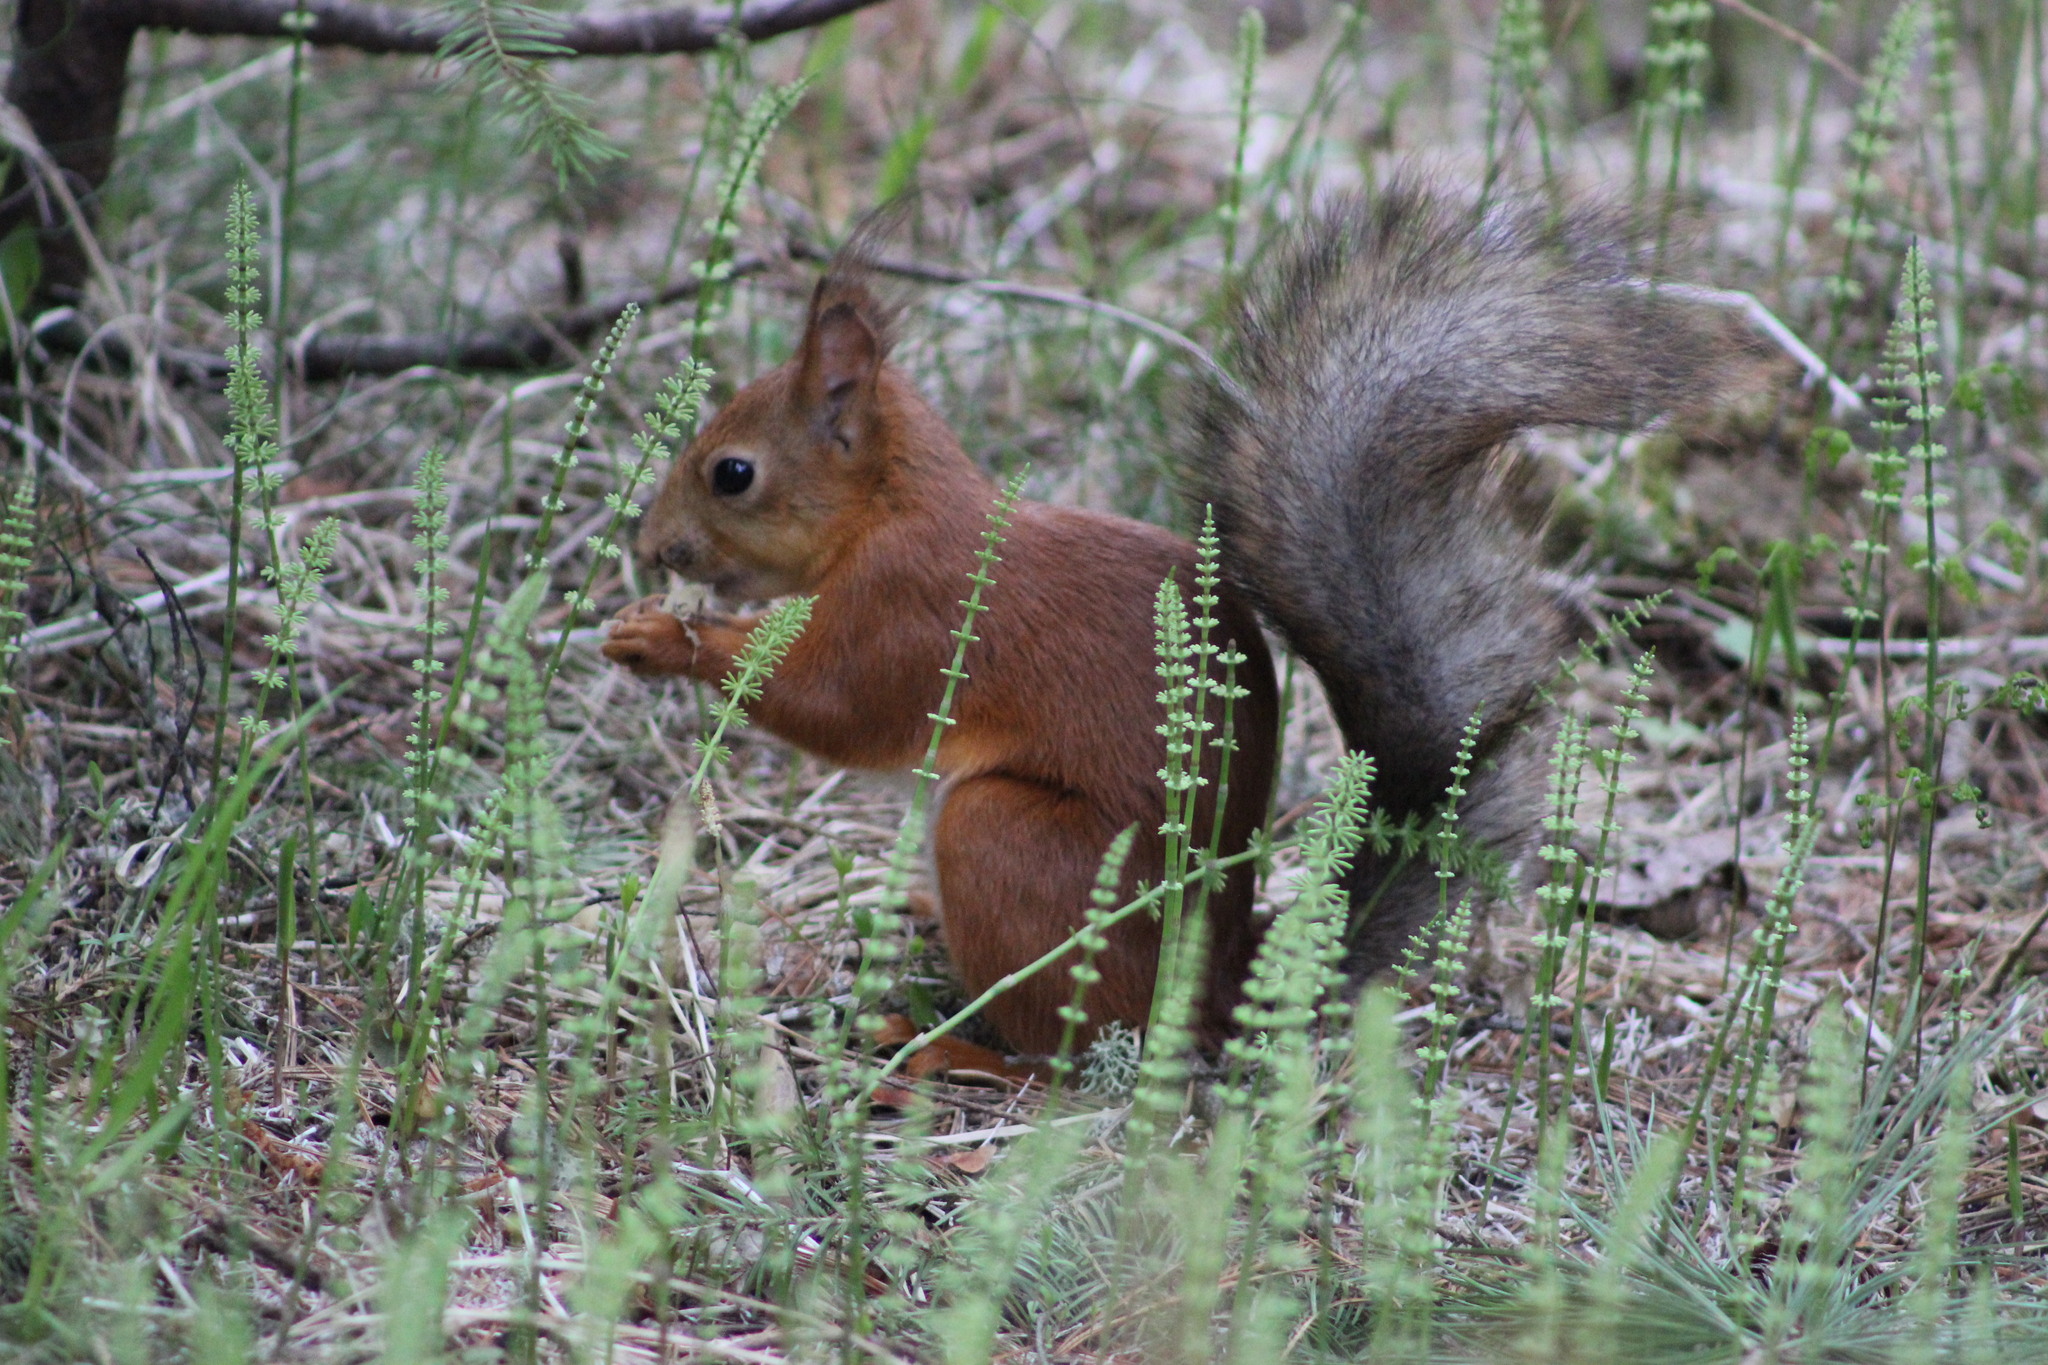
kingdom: Animalia
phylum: Chordata
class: Mammalia
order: Rodentia
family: Sciuridae
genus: Sciurus
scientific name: Sciurus vulgaris
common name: Eurasian red squirrel
